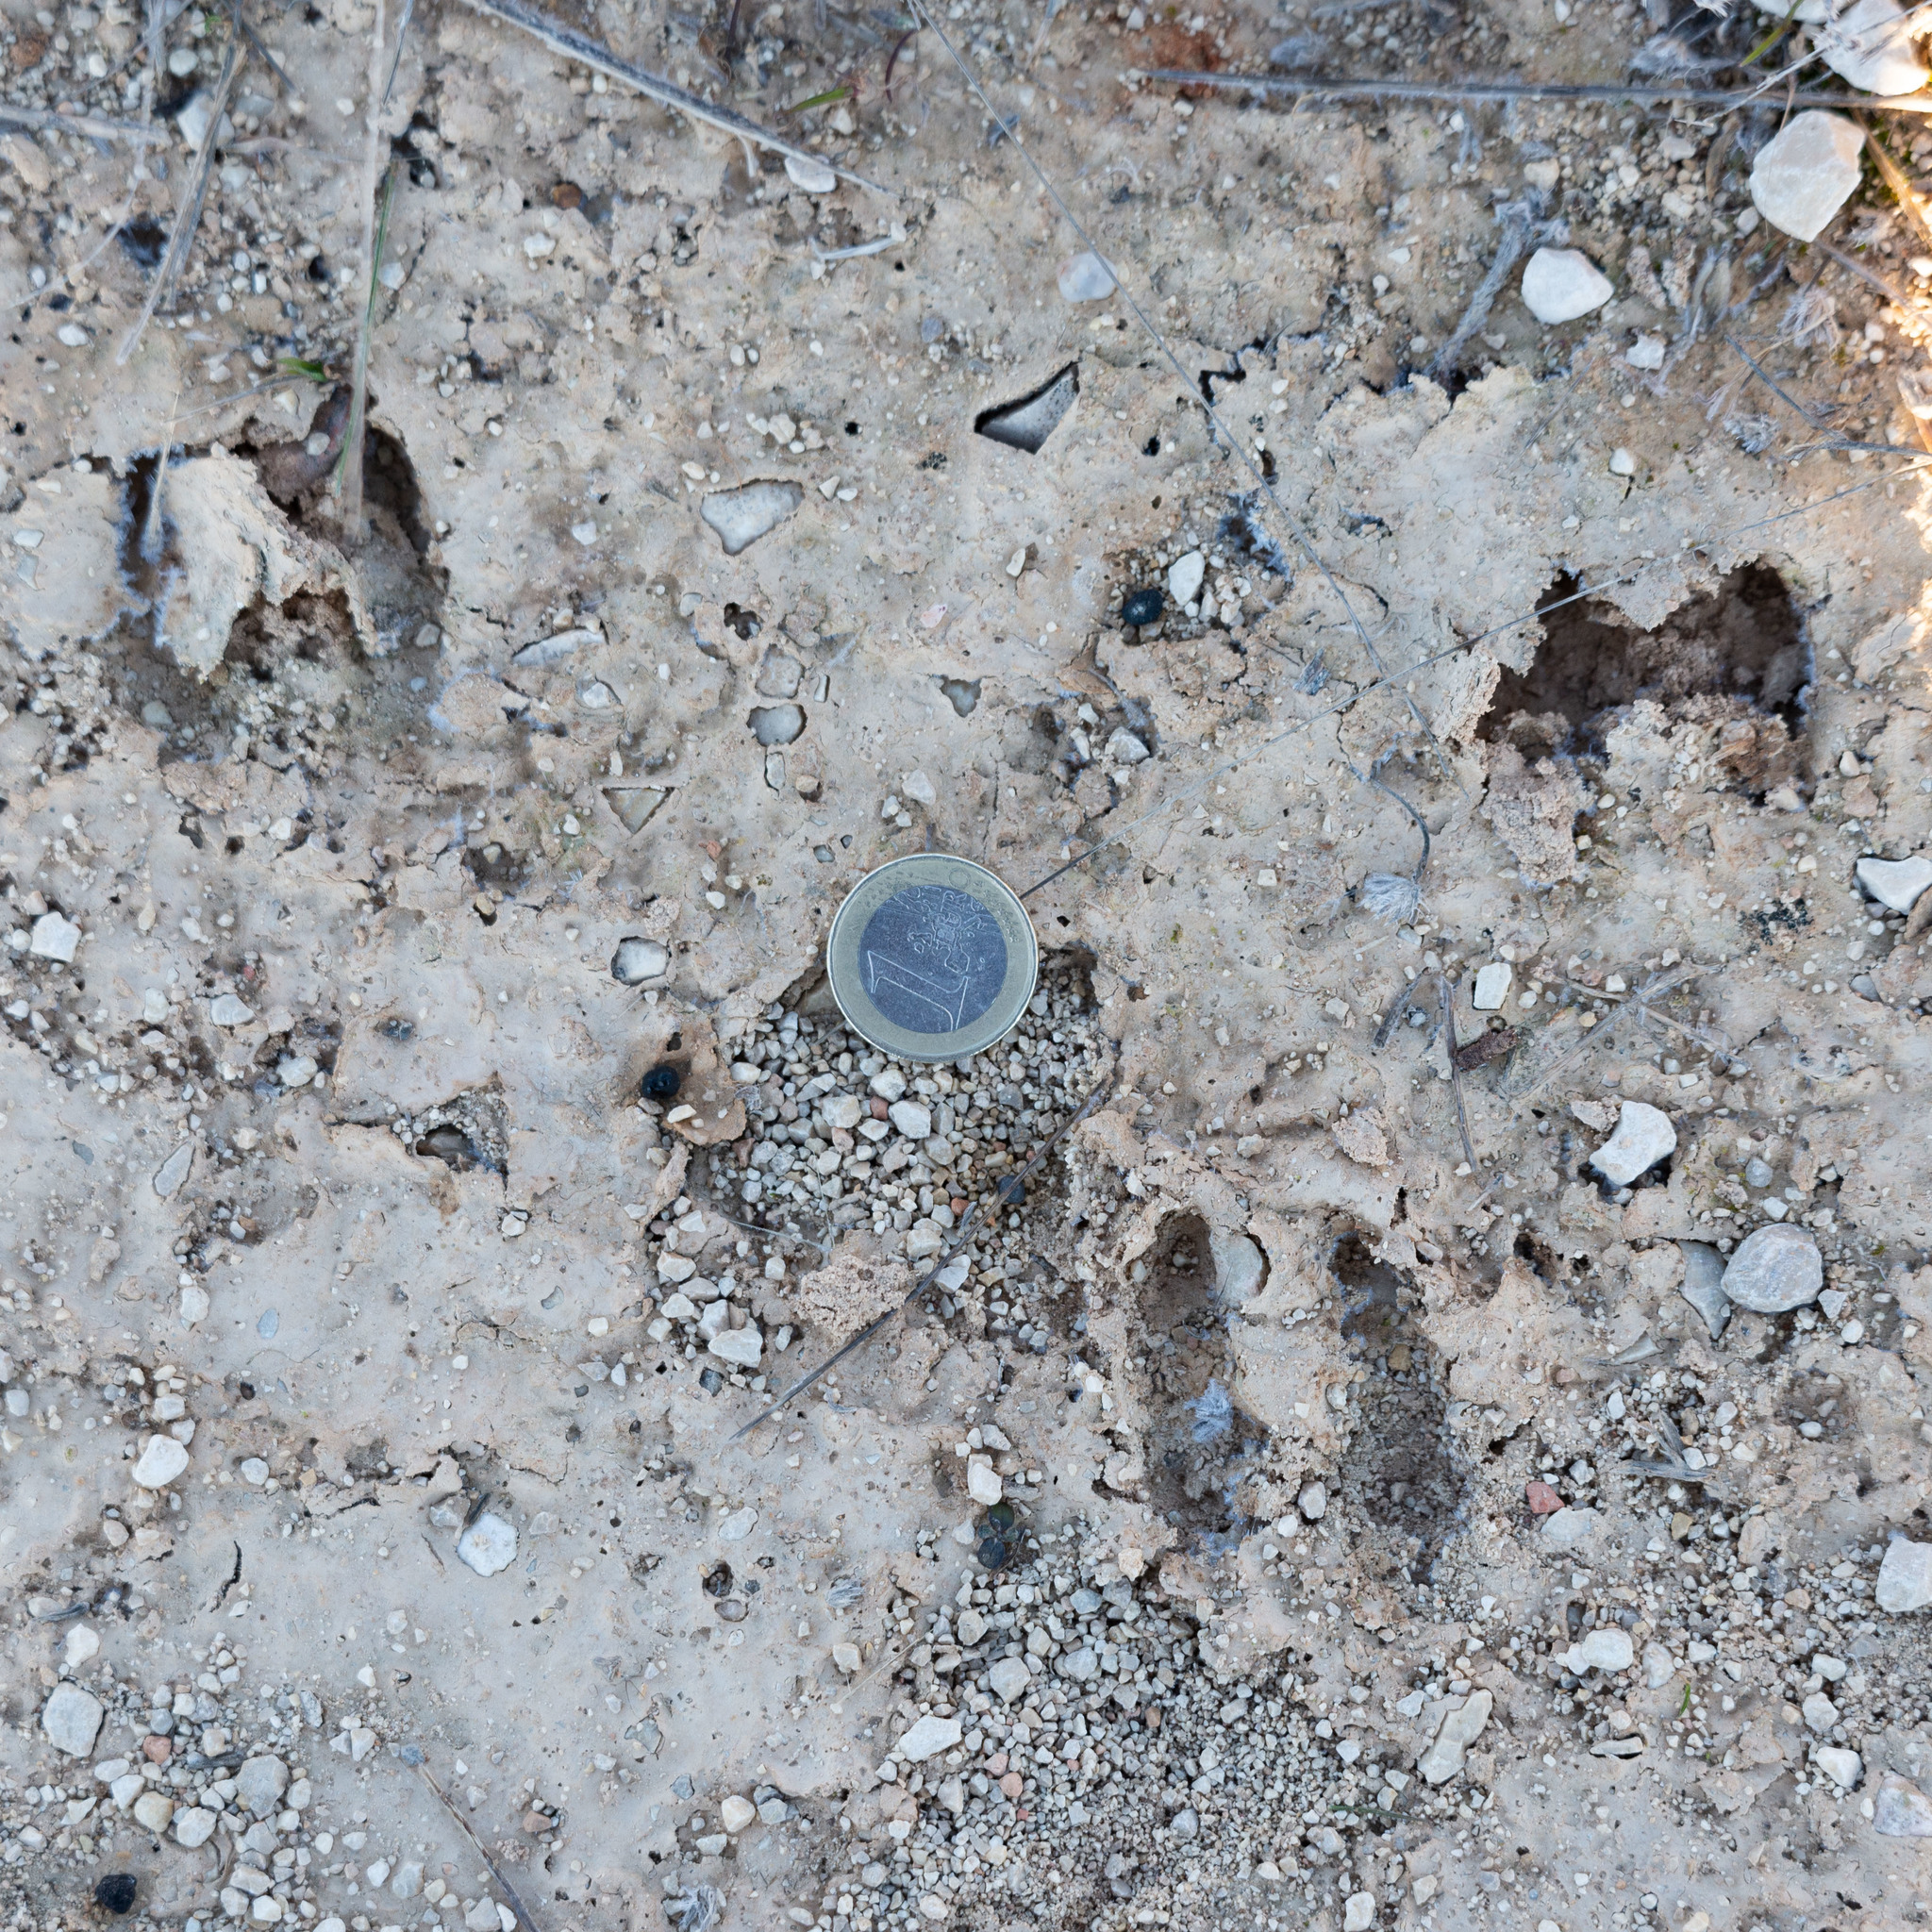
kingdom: Animalia
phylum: Chordata
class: Mammalia
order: Artiodactyla
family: Cervidae
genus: Capreolus
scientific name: Capreolus capreolus
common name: Western roe deer
